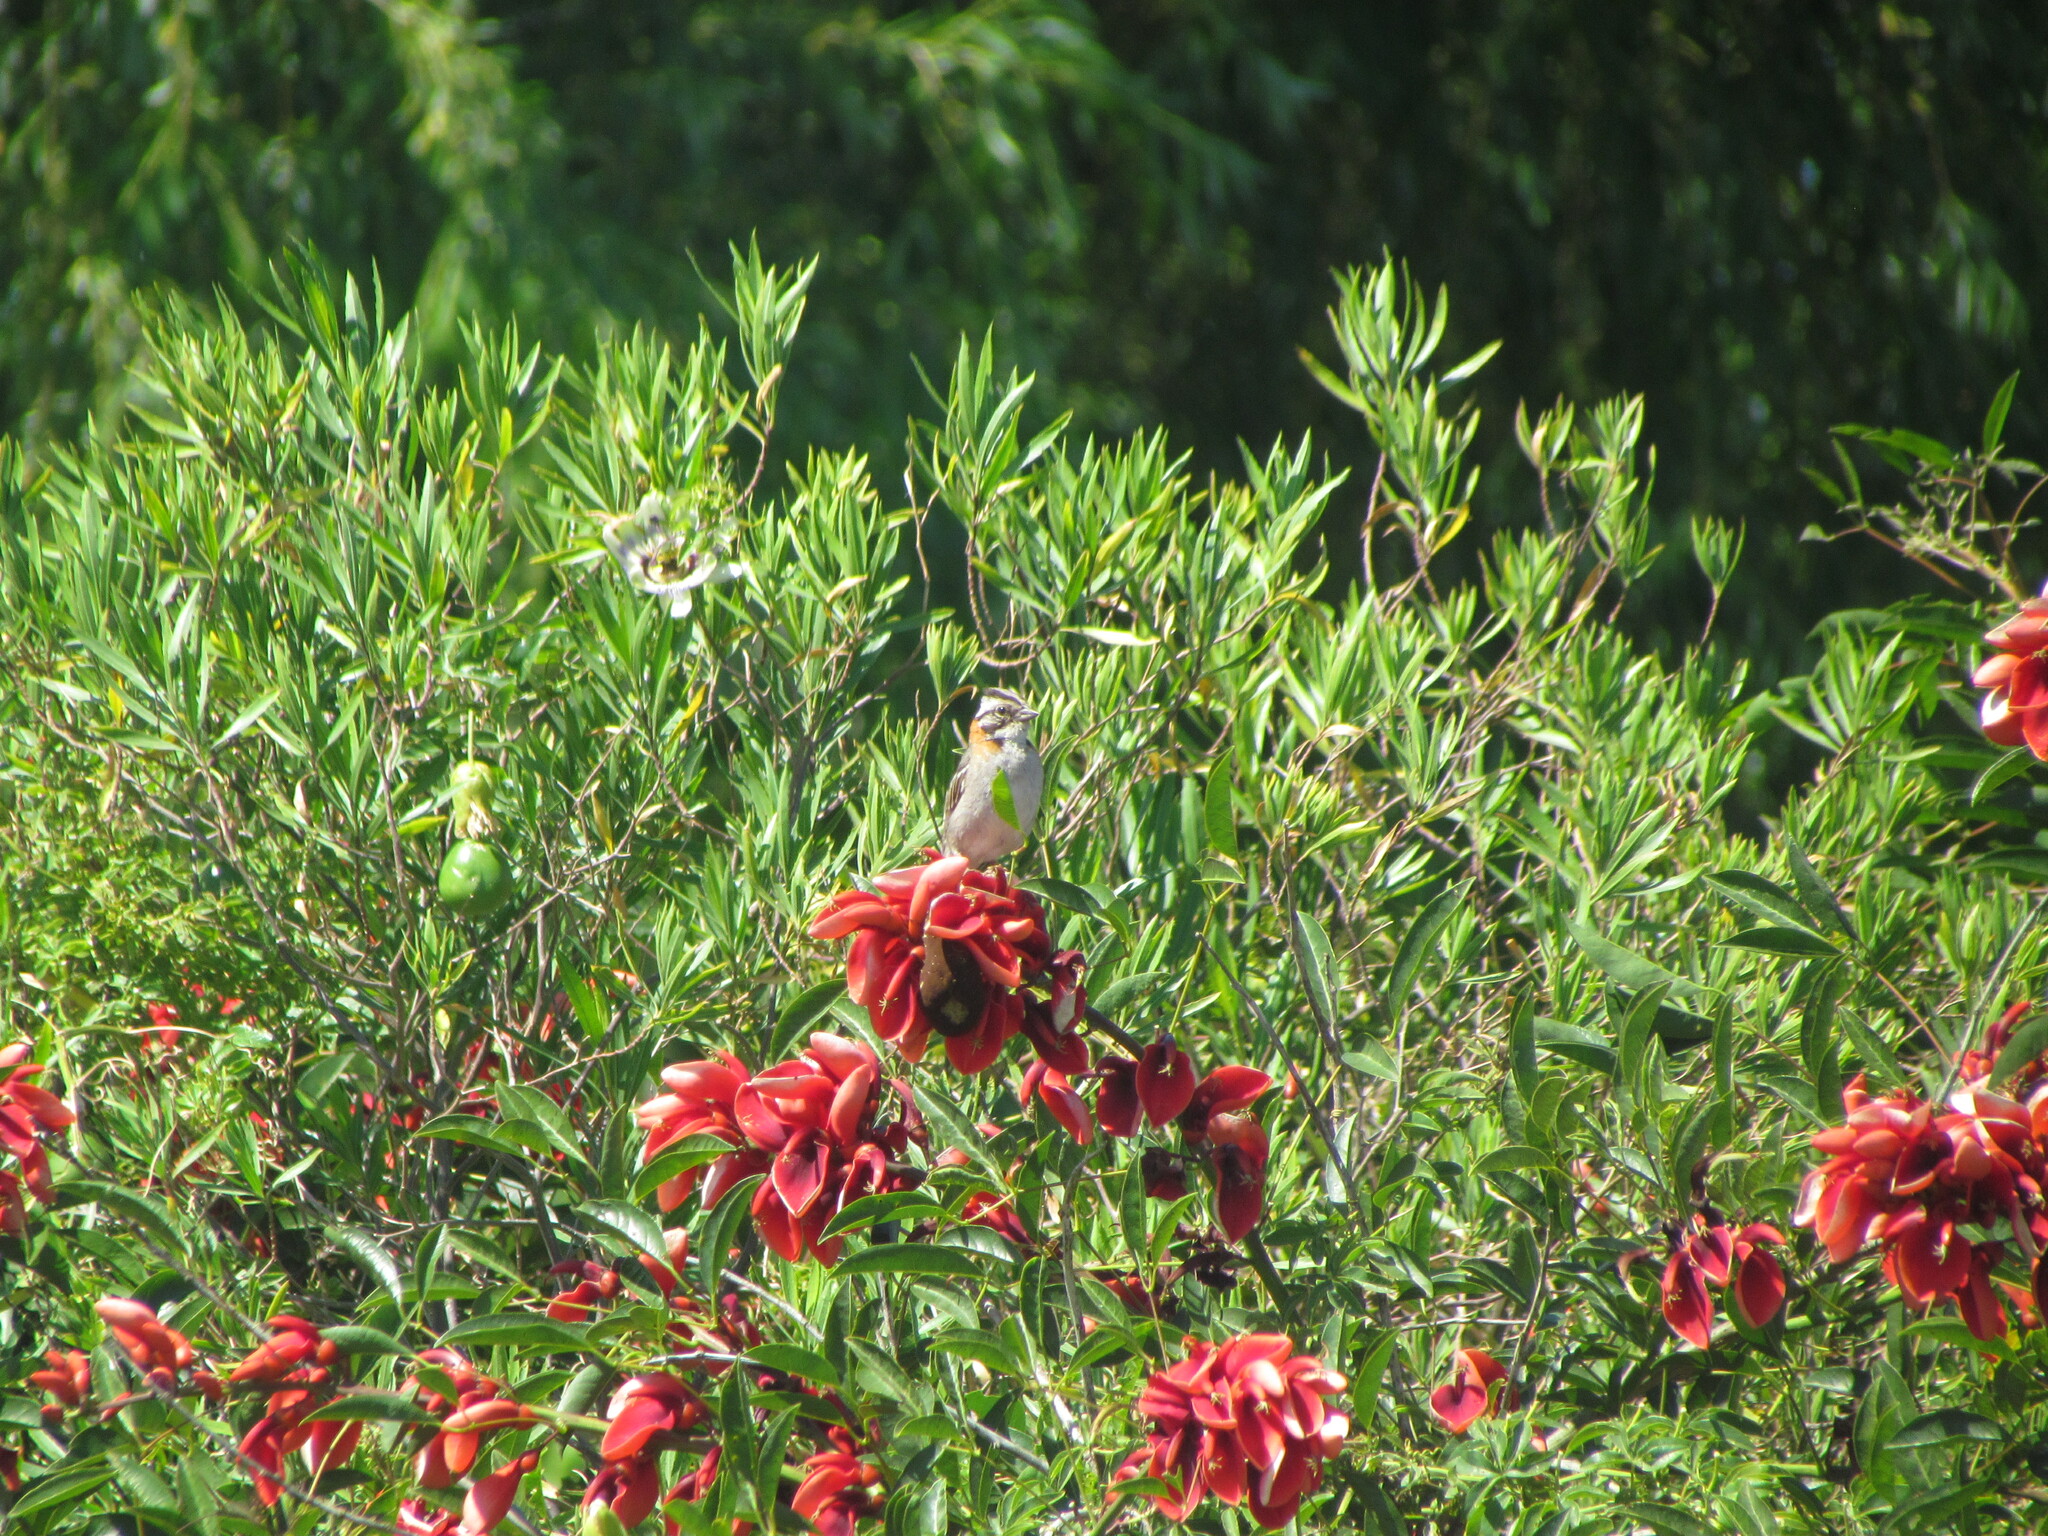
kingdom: Animalia
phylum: Chordata
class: Aves
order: Passeriformes
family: Passerellidae
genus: Zonotrichia
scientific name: Zonotrichia capensis
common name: Rufous-collared sparrow
